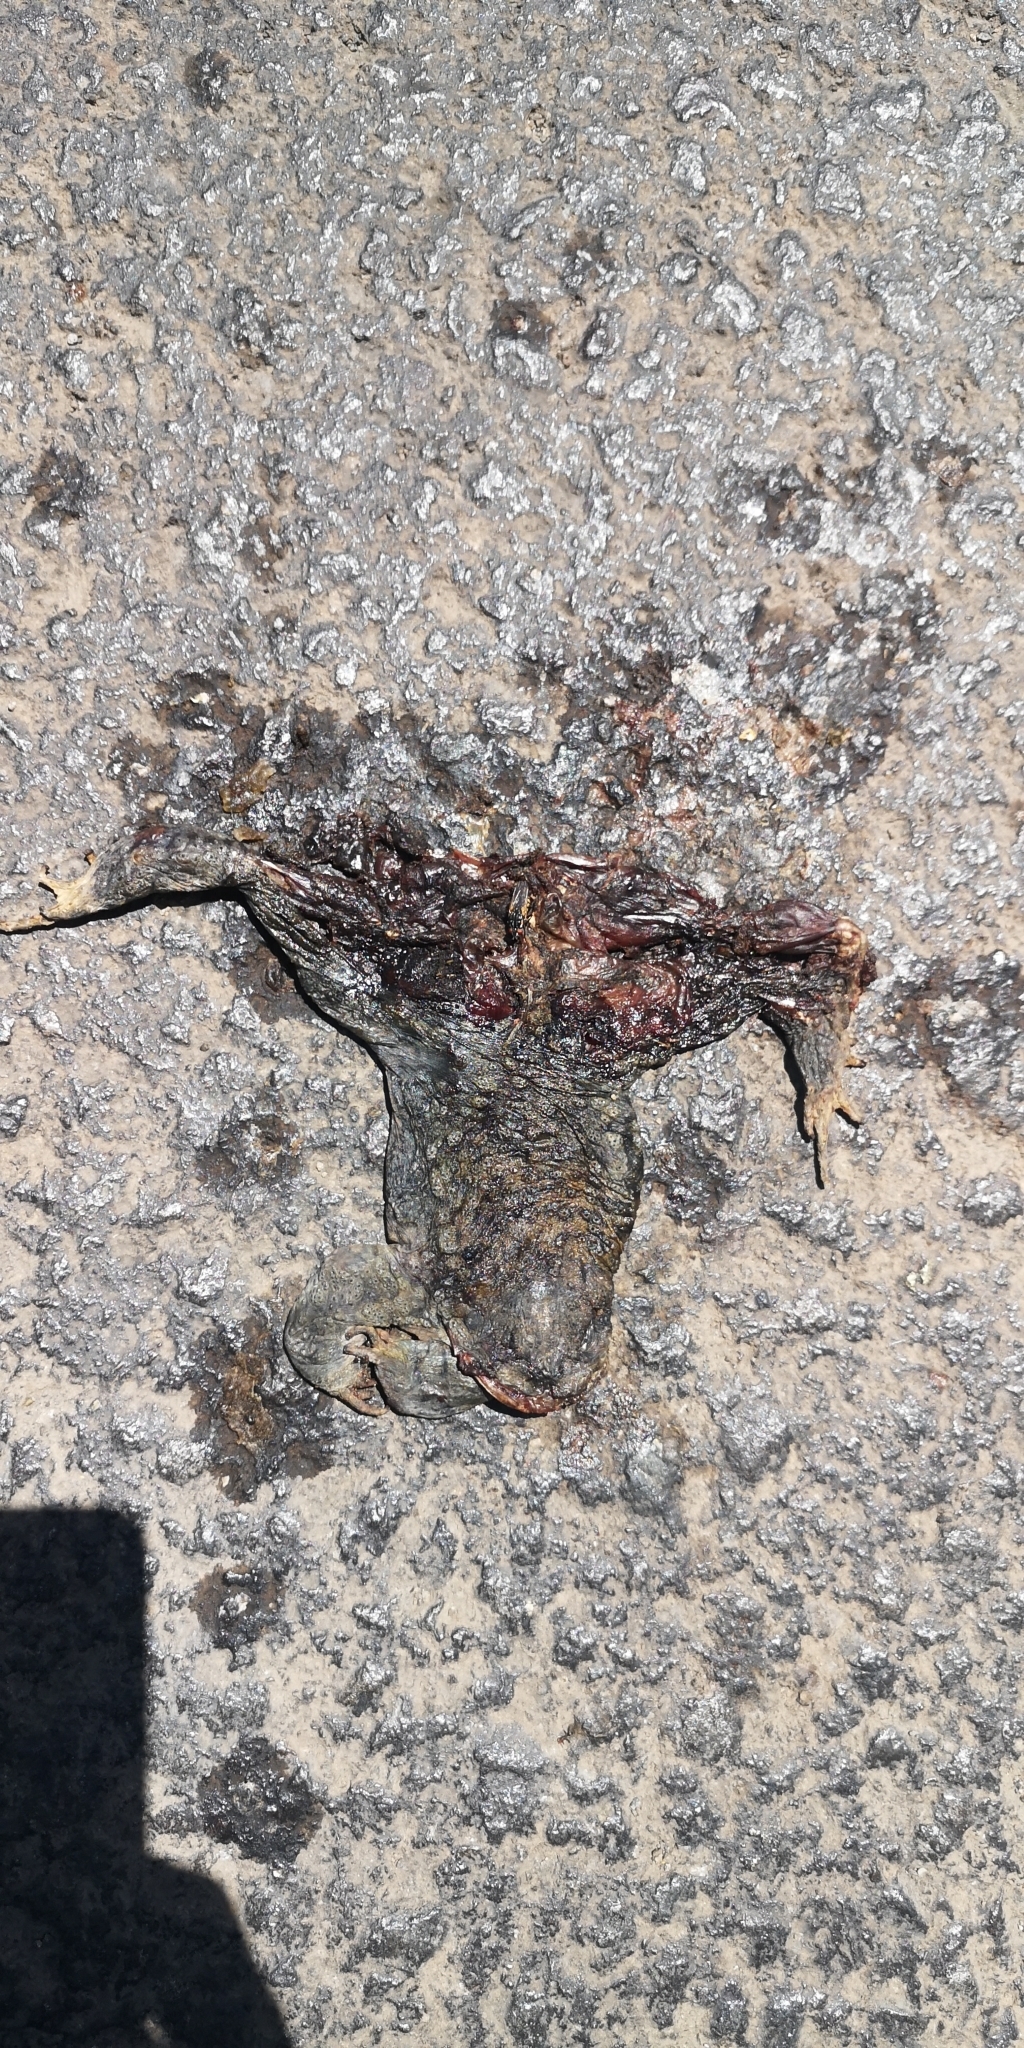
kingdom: Animalia
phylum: Chordata
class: Amphibia
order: Anura
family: Bufonidae
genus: Rhinella
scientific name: Rhinella spinulosa
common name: Warty toad
